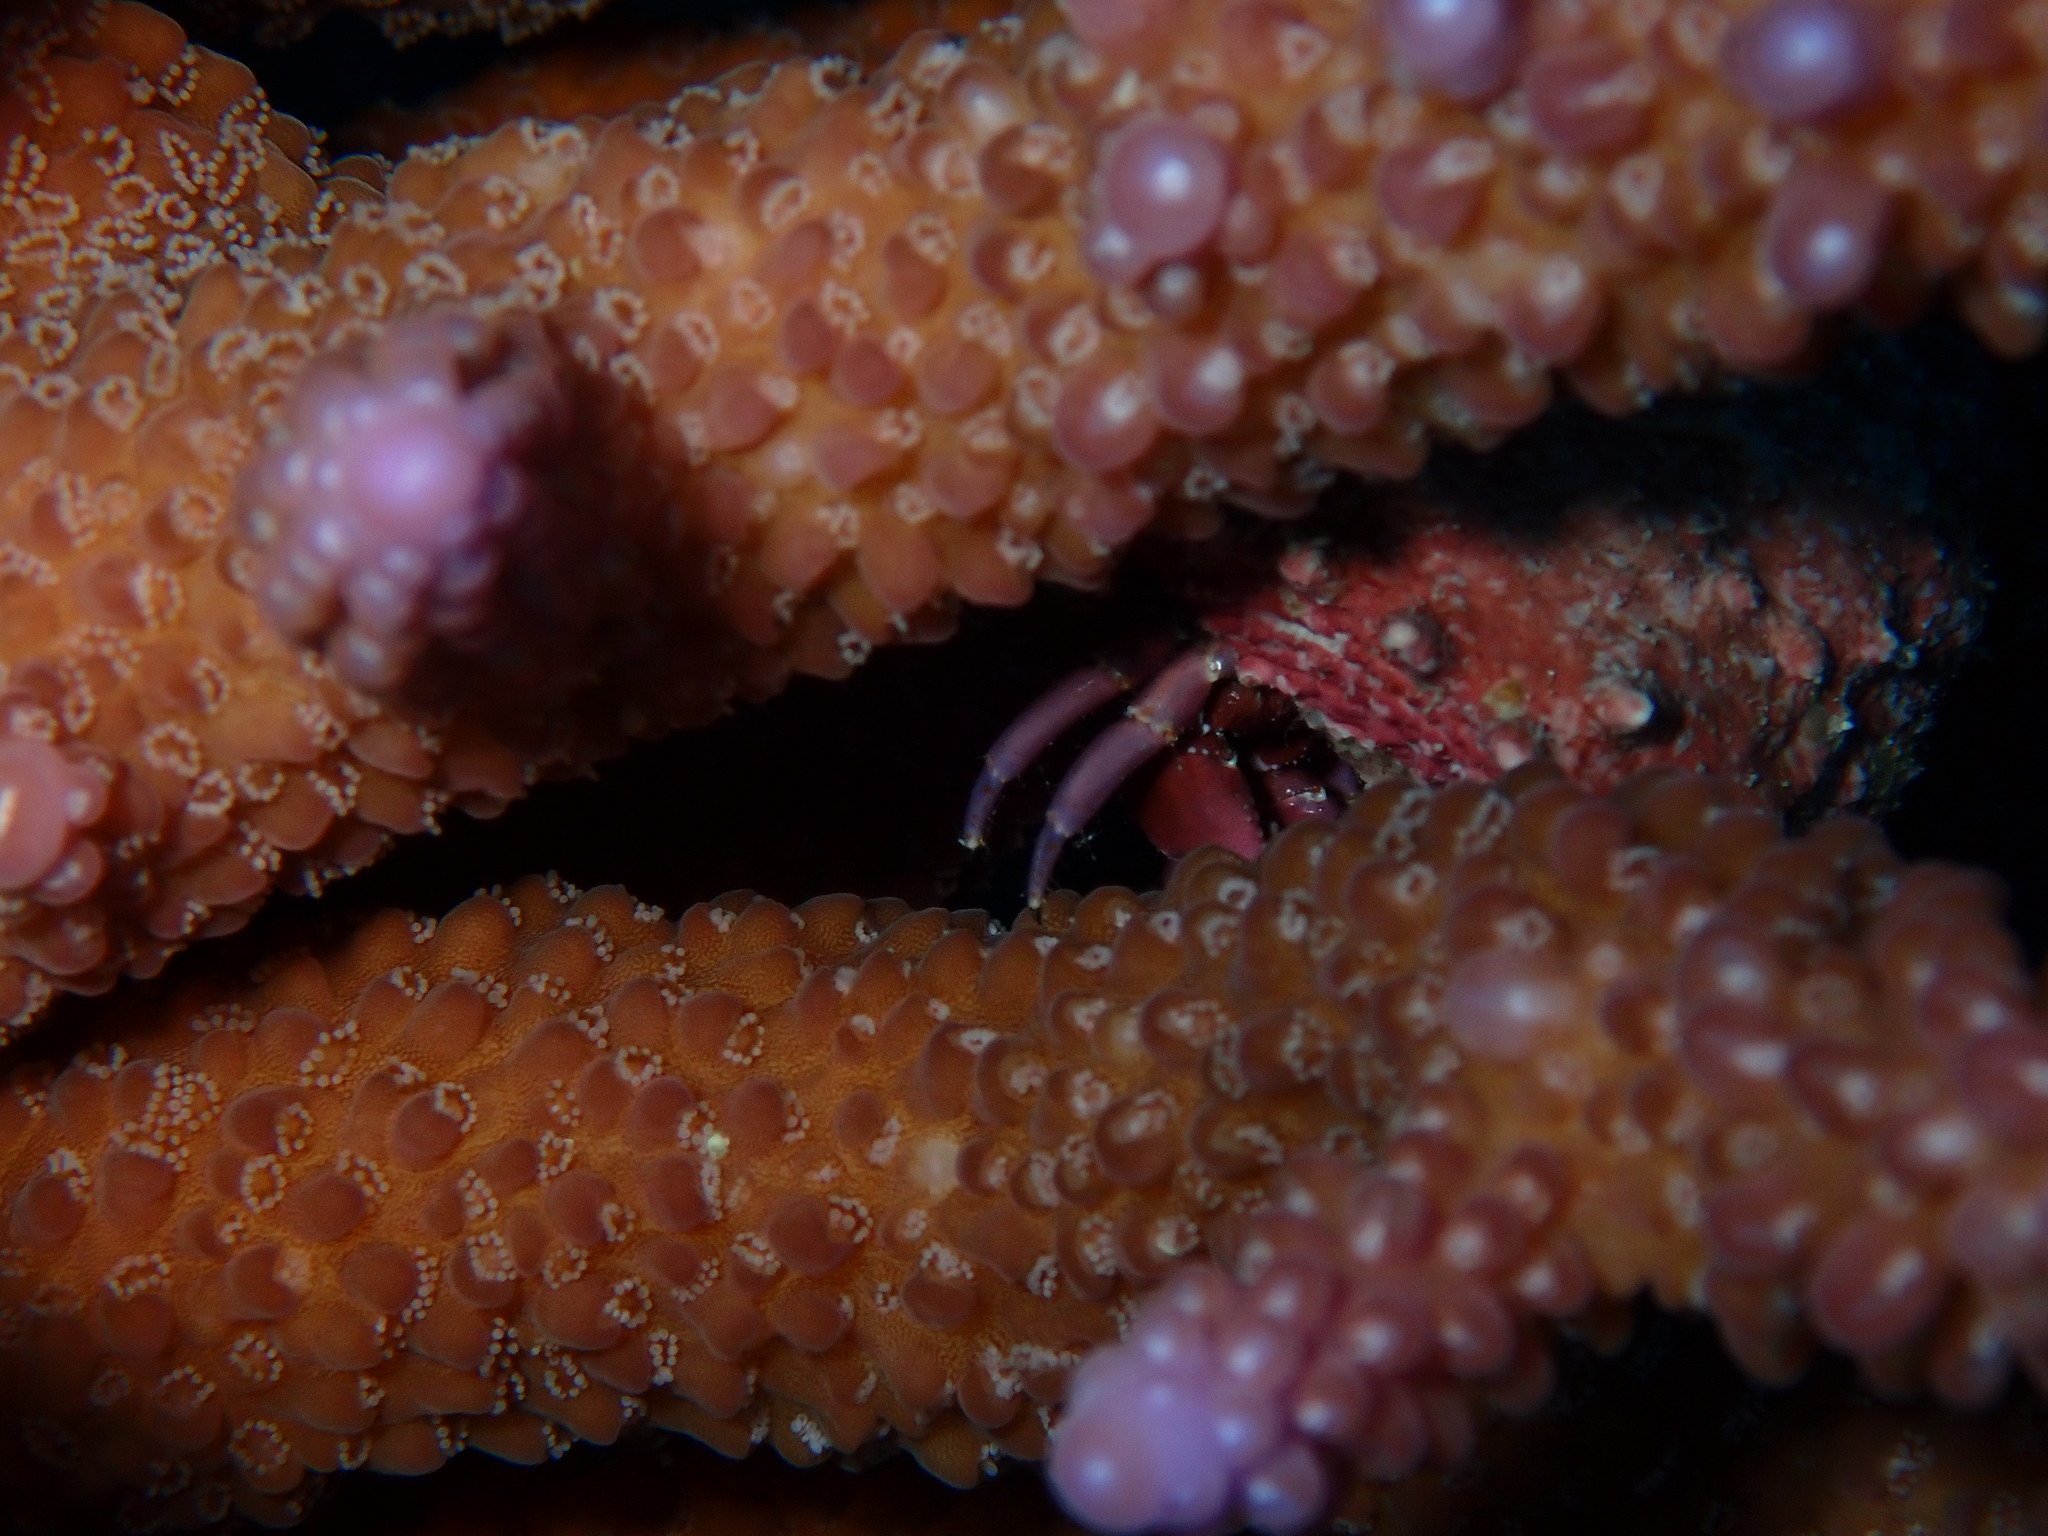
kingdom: Animalia
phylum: Arthropoda
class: Malacostraca
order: Decapoda
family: Diogenidae
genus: Calcinus
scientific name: Calcinus rosaceus
